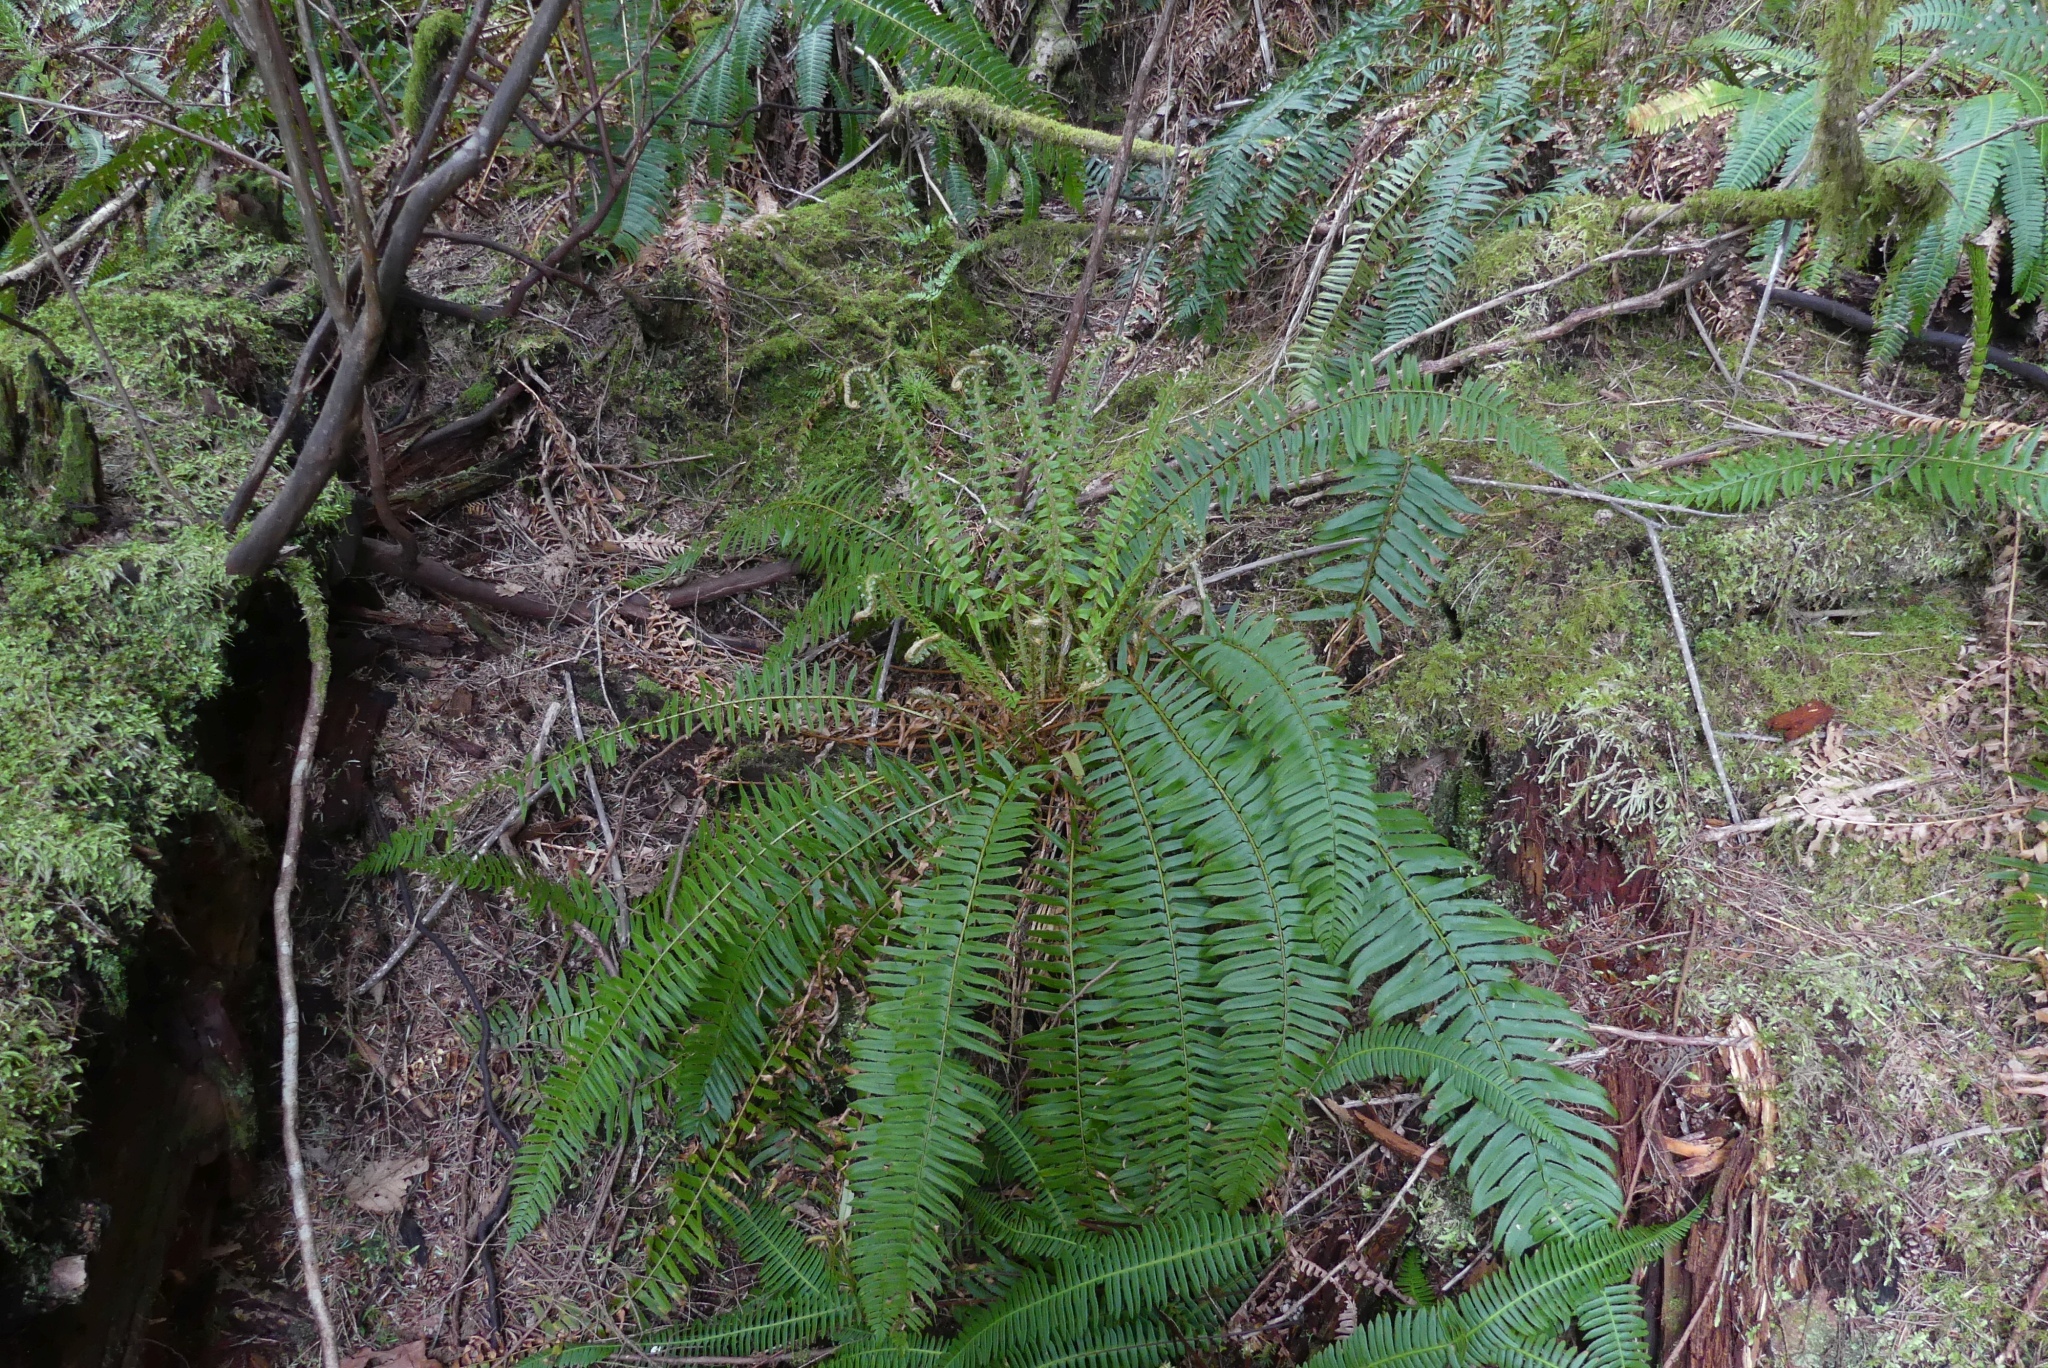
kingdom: Plantae
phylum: Tracheophyta
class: Polypodiopsida
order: Polypodiales
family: Dryopteridaceae
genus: Polystichum
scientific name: Polystichum munitum
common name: Western sword-fern
